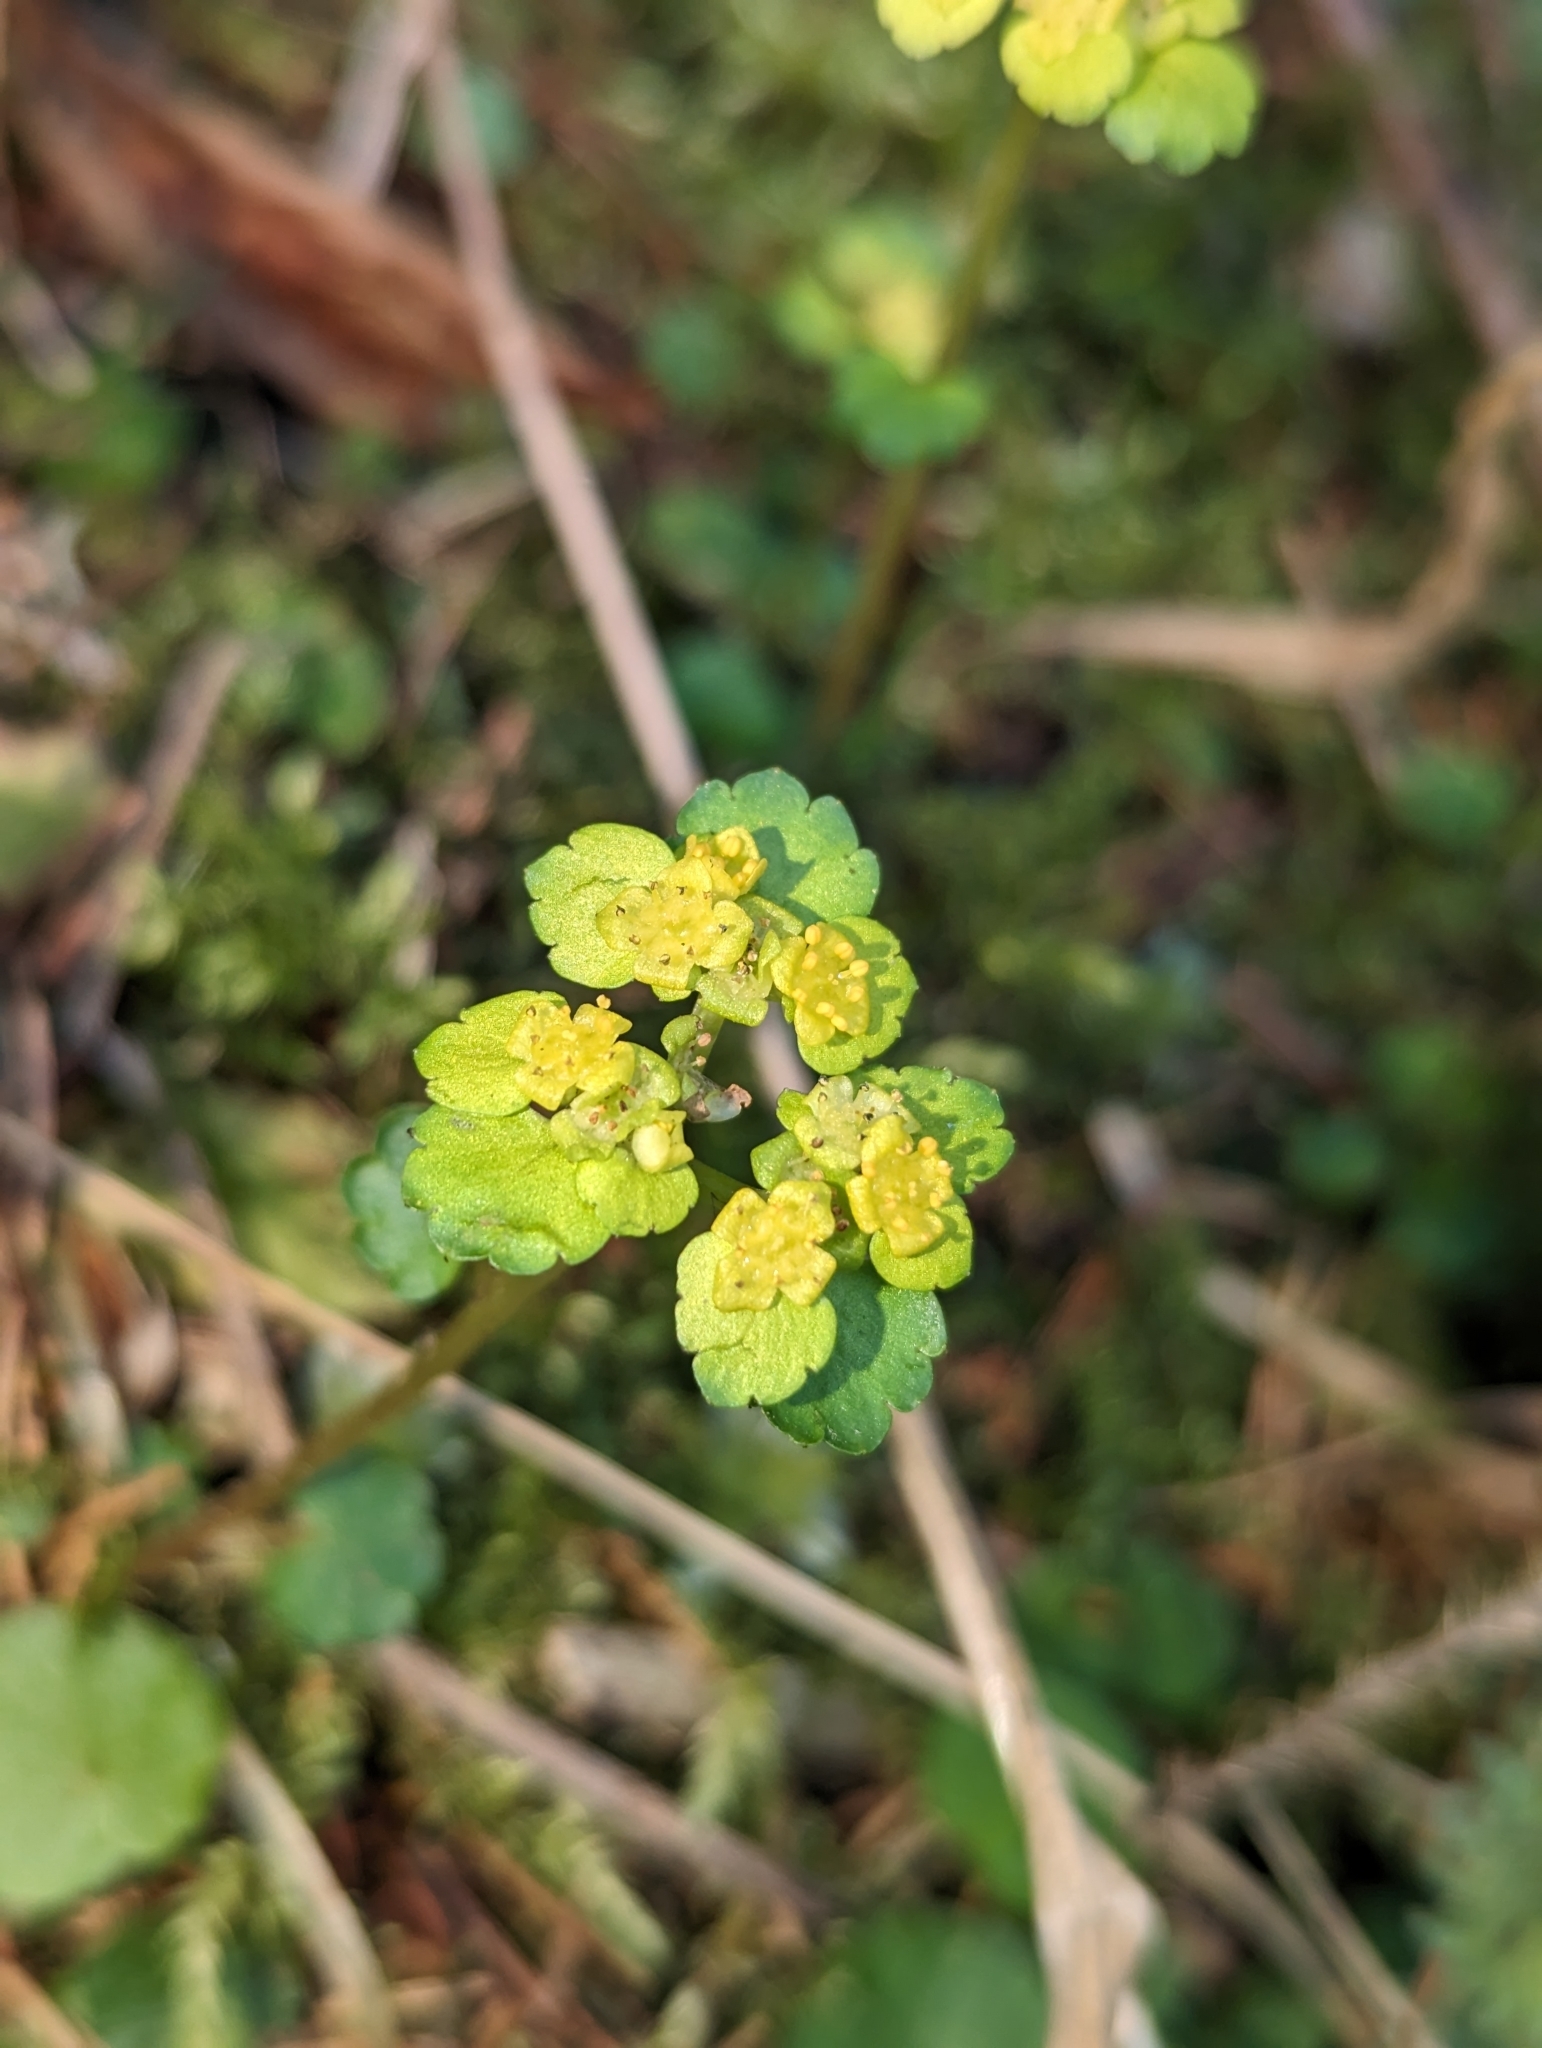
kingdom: Plantae
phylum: Tracheophyta
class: Magnoliopsida
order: Saxifragales
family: Saxifragaceae
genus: Chrysosplenium
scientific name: Chrysosplenium alternifolium
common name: Alternate-leaved golden-saxifrage
